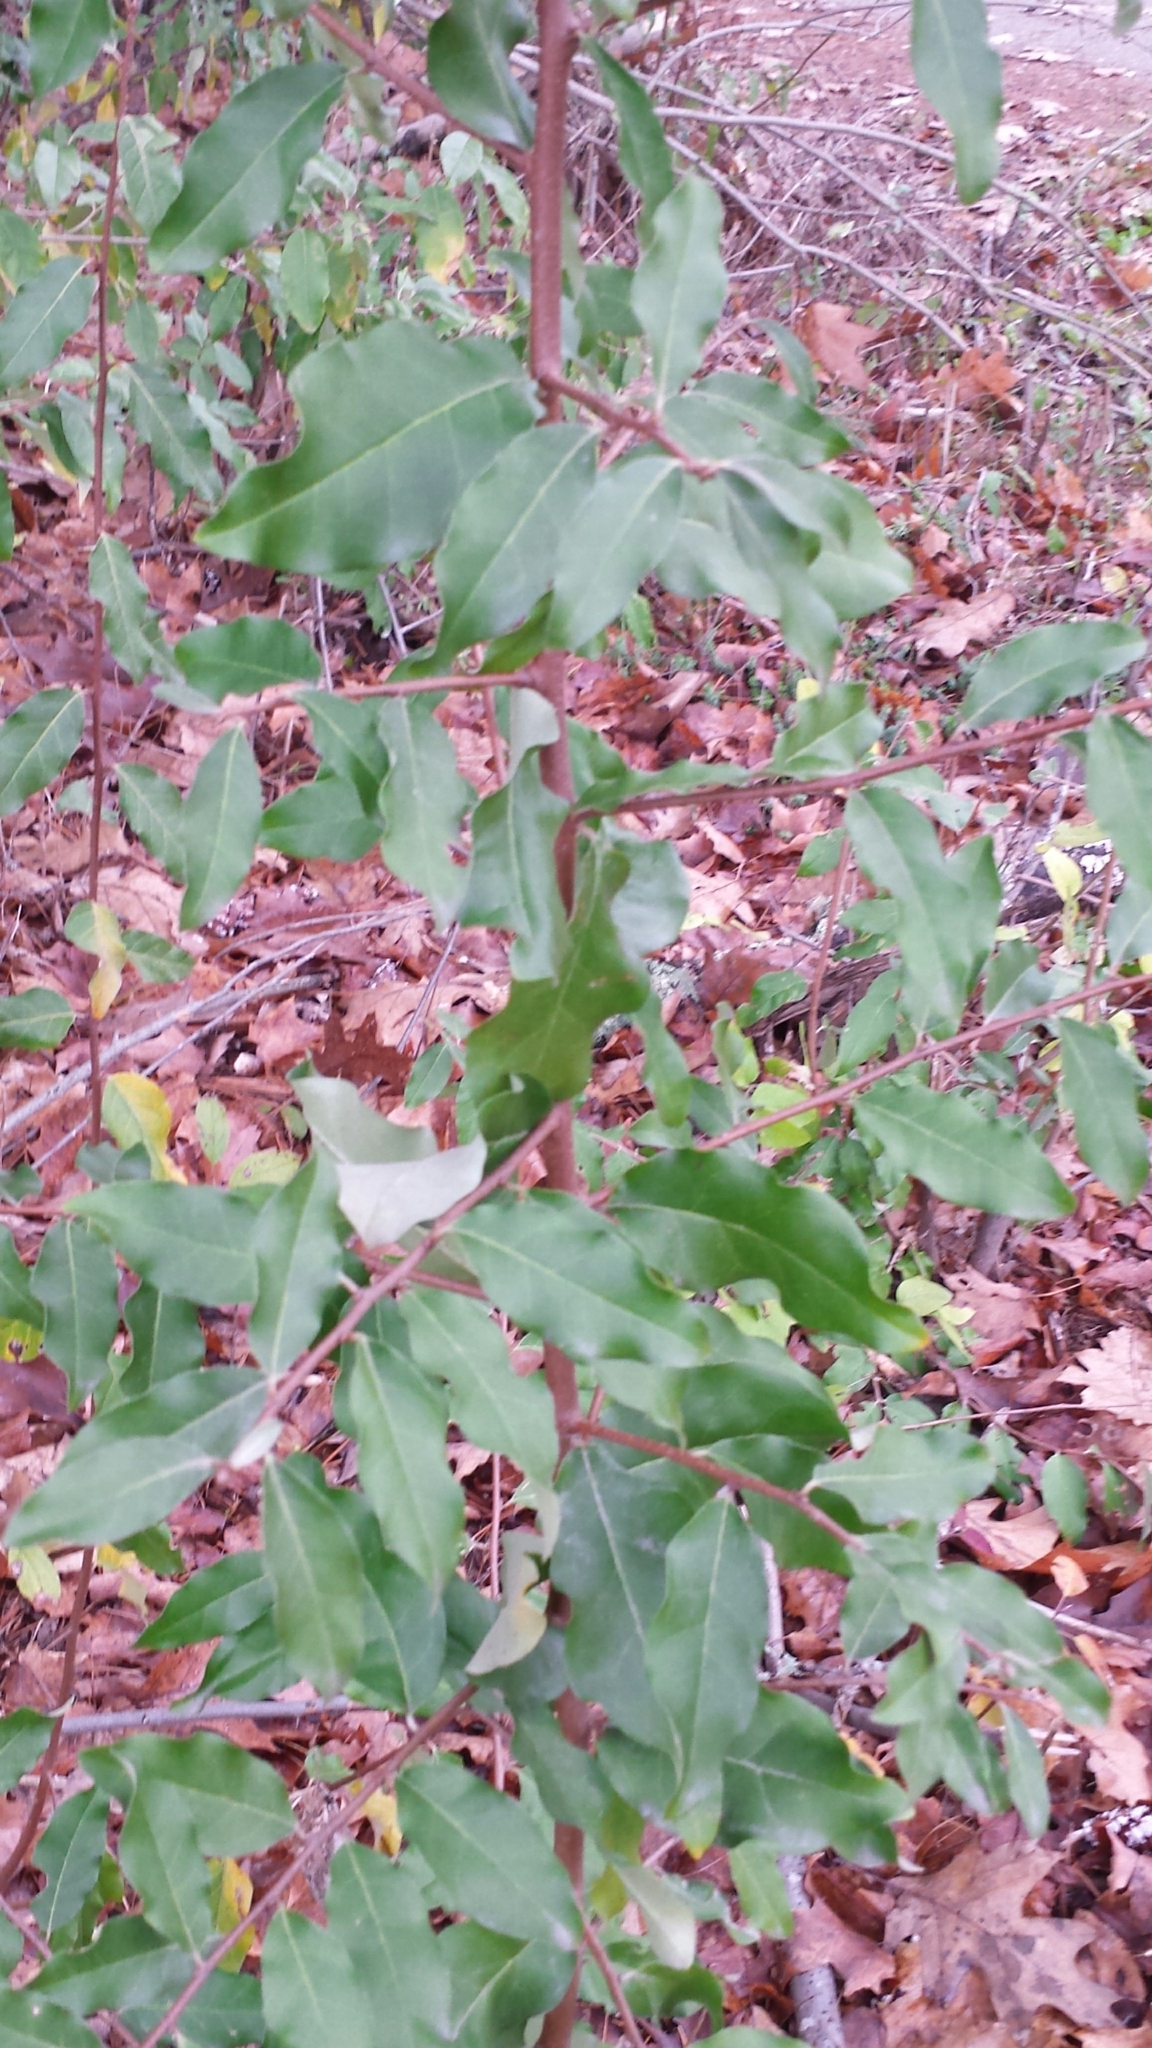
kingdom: Plantae
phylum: Tracheophyta
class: Magnoliopsida
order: Rosales
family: Elaeagnaceae
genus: Elaeagnus
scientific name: Elaeagnus umbellata
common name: Autumn olive
